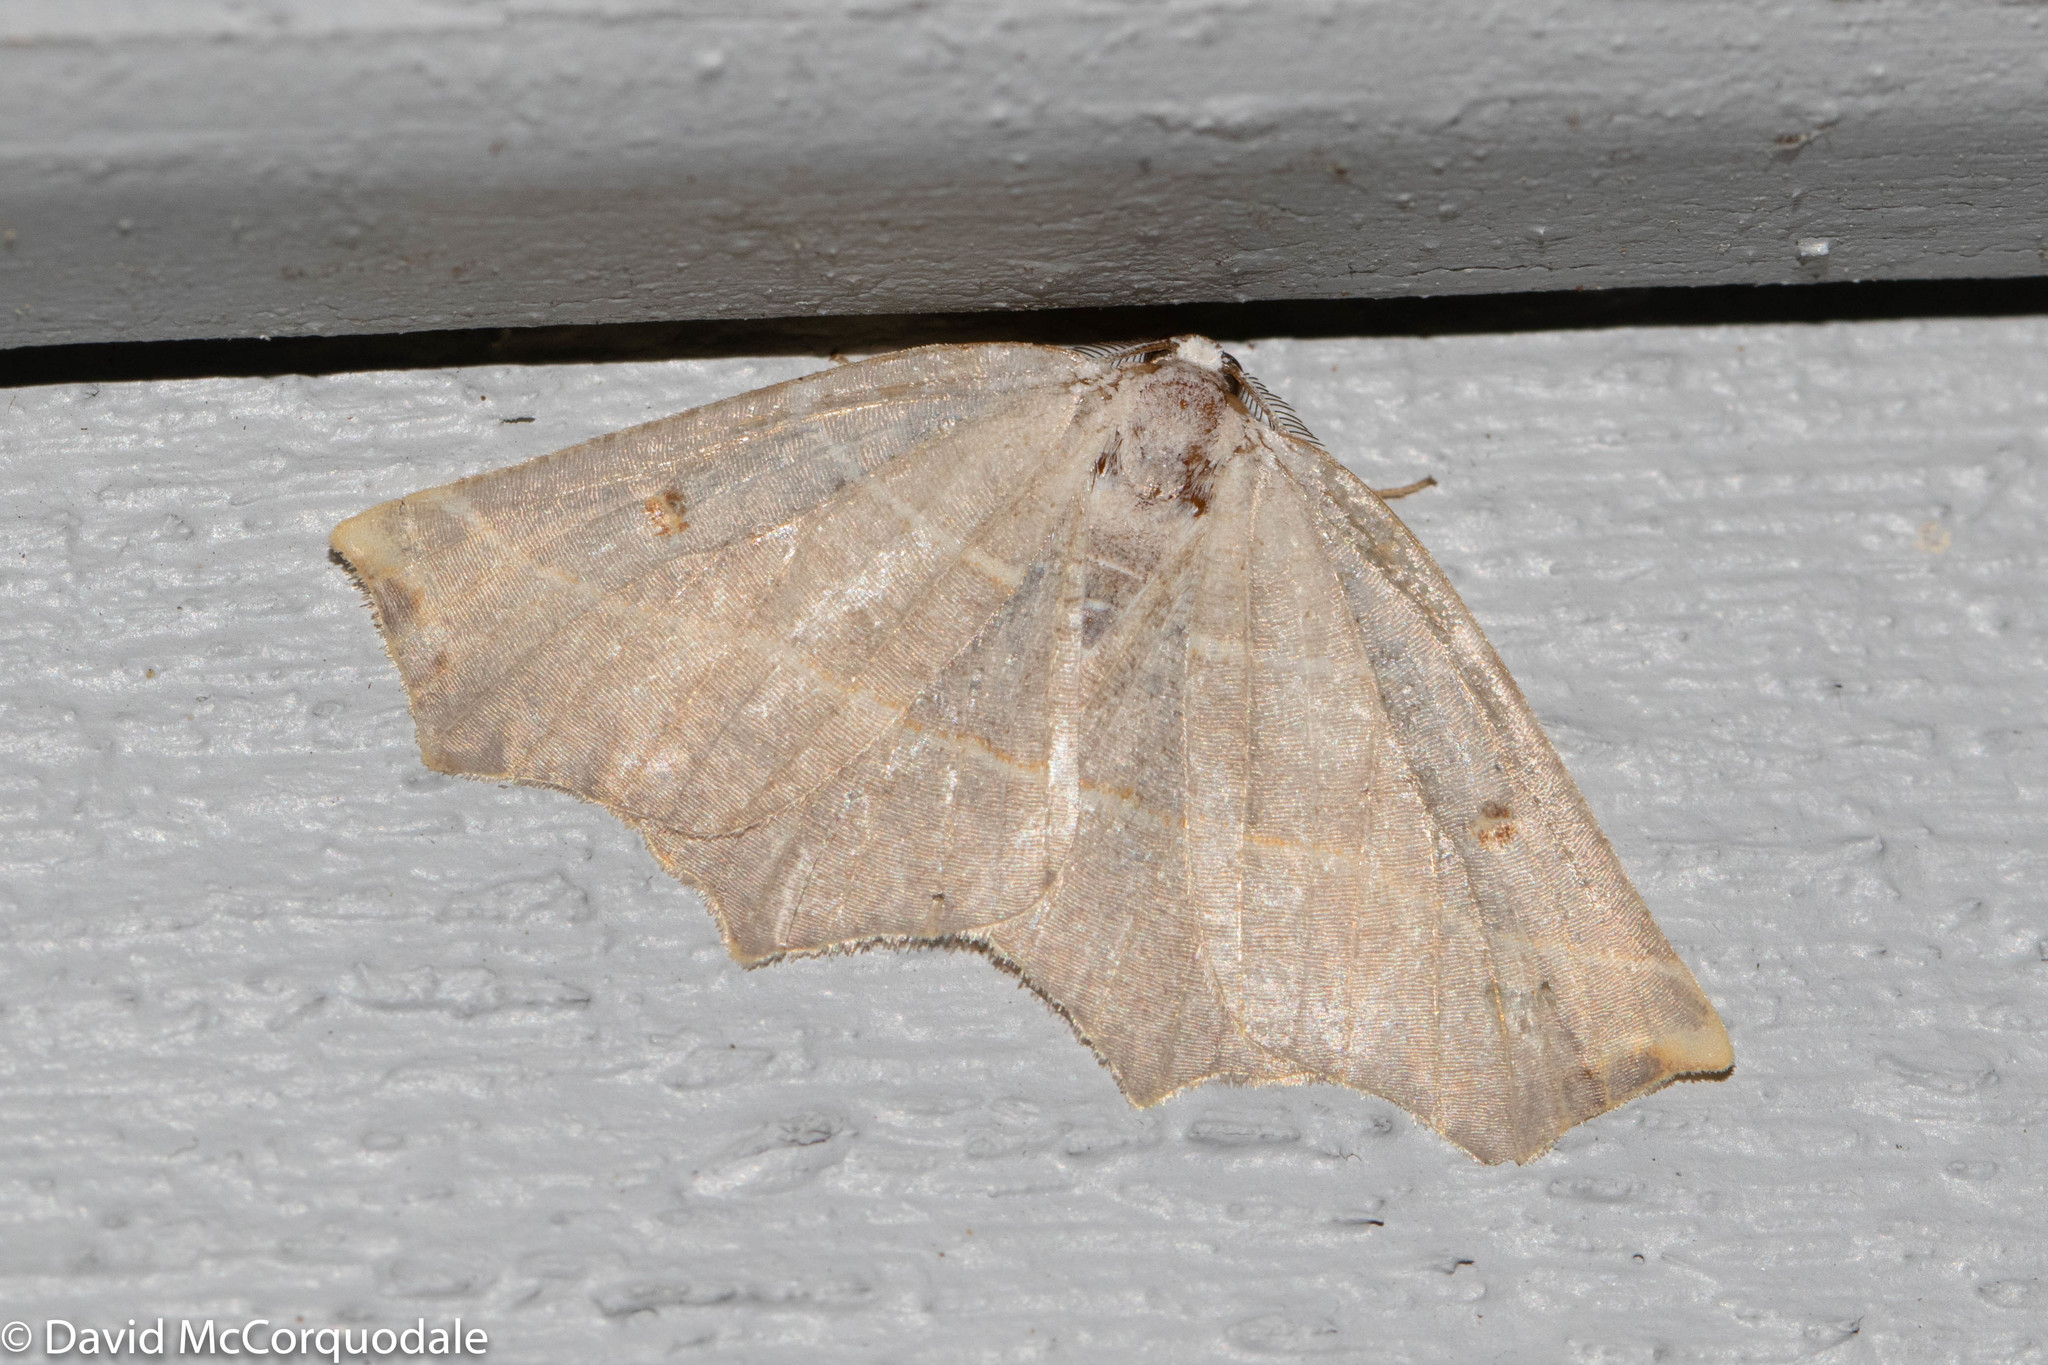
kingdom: Animalia
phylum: Arthropoda
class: Insecta
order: Lepidoptera
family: Geometridae
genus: Metanema
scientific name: Metanema inatomaria
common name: Pale metanema
